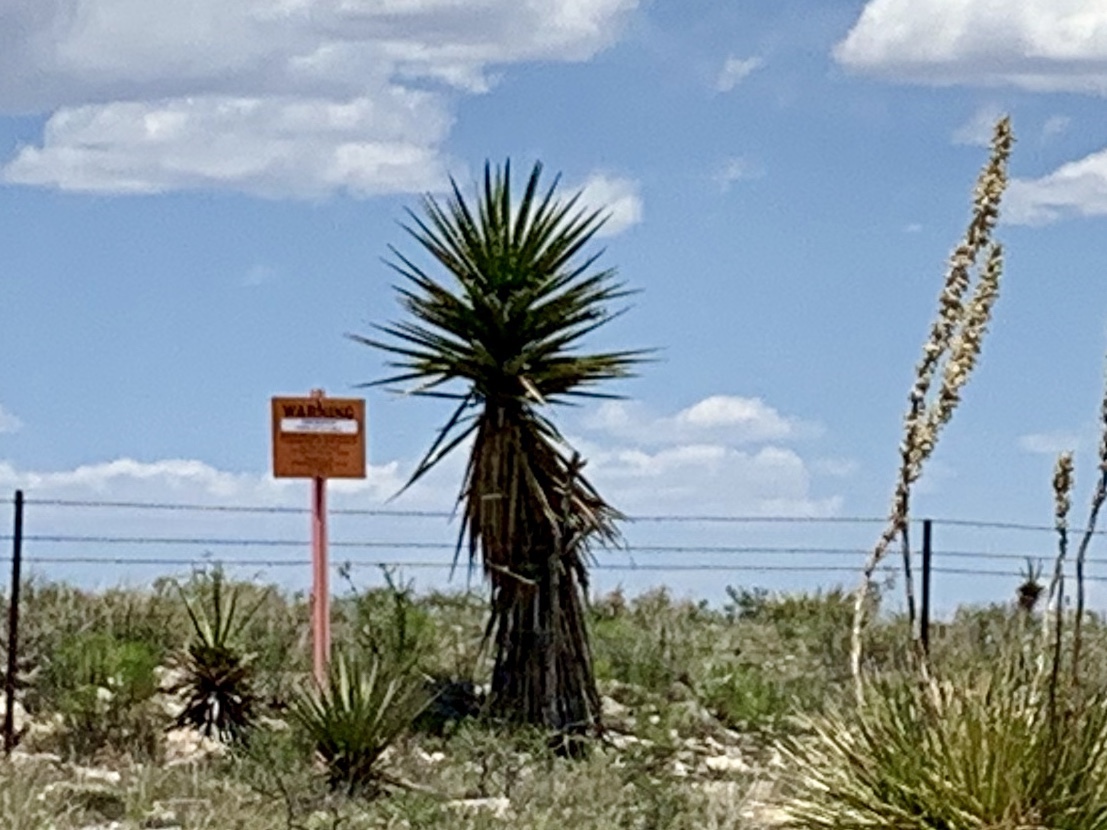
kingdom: Plantae
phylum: Tracheophyta
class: Liliopsida
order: Asparagales
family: Asparagaceae
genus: Yucca
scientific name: Yucca treculiana
